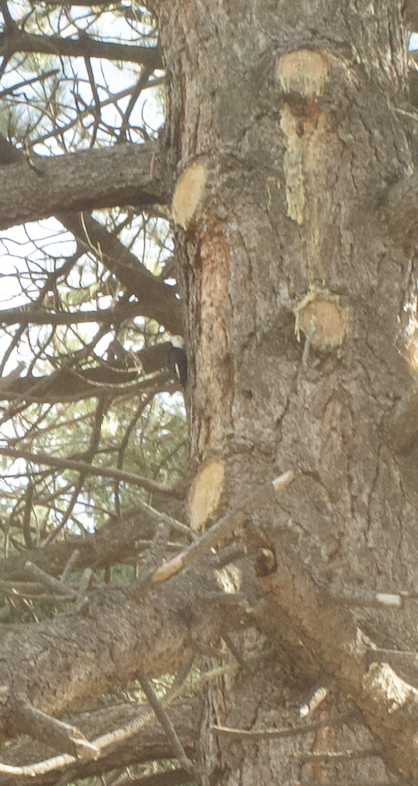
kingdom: Animalia
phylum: Chordata
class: Aves
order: Piciformes
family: Picidae
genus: Leuconotopicus
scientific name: Leuconotopicus albolarvatus
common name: White-headed woodpecker
